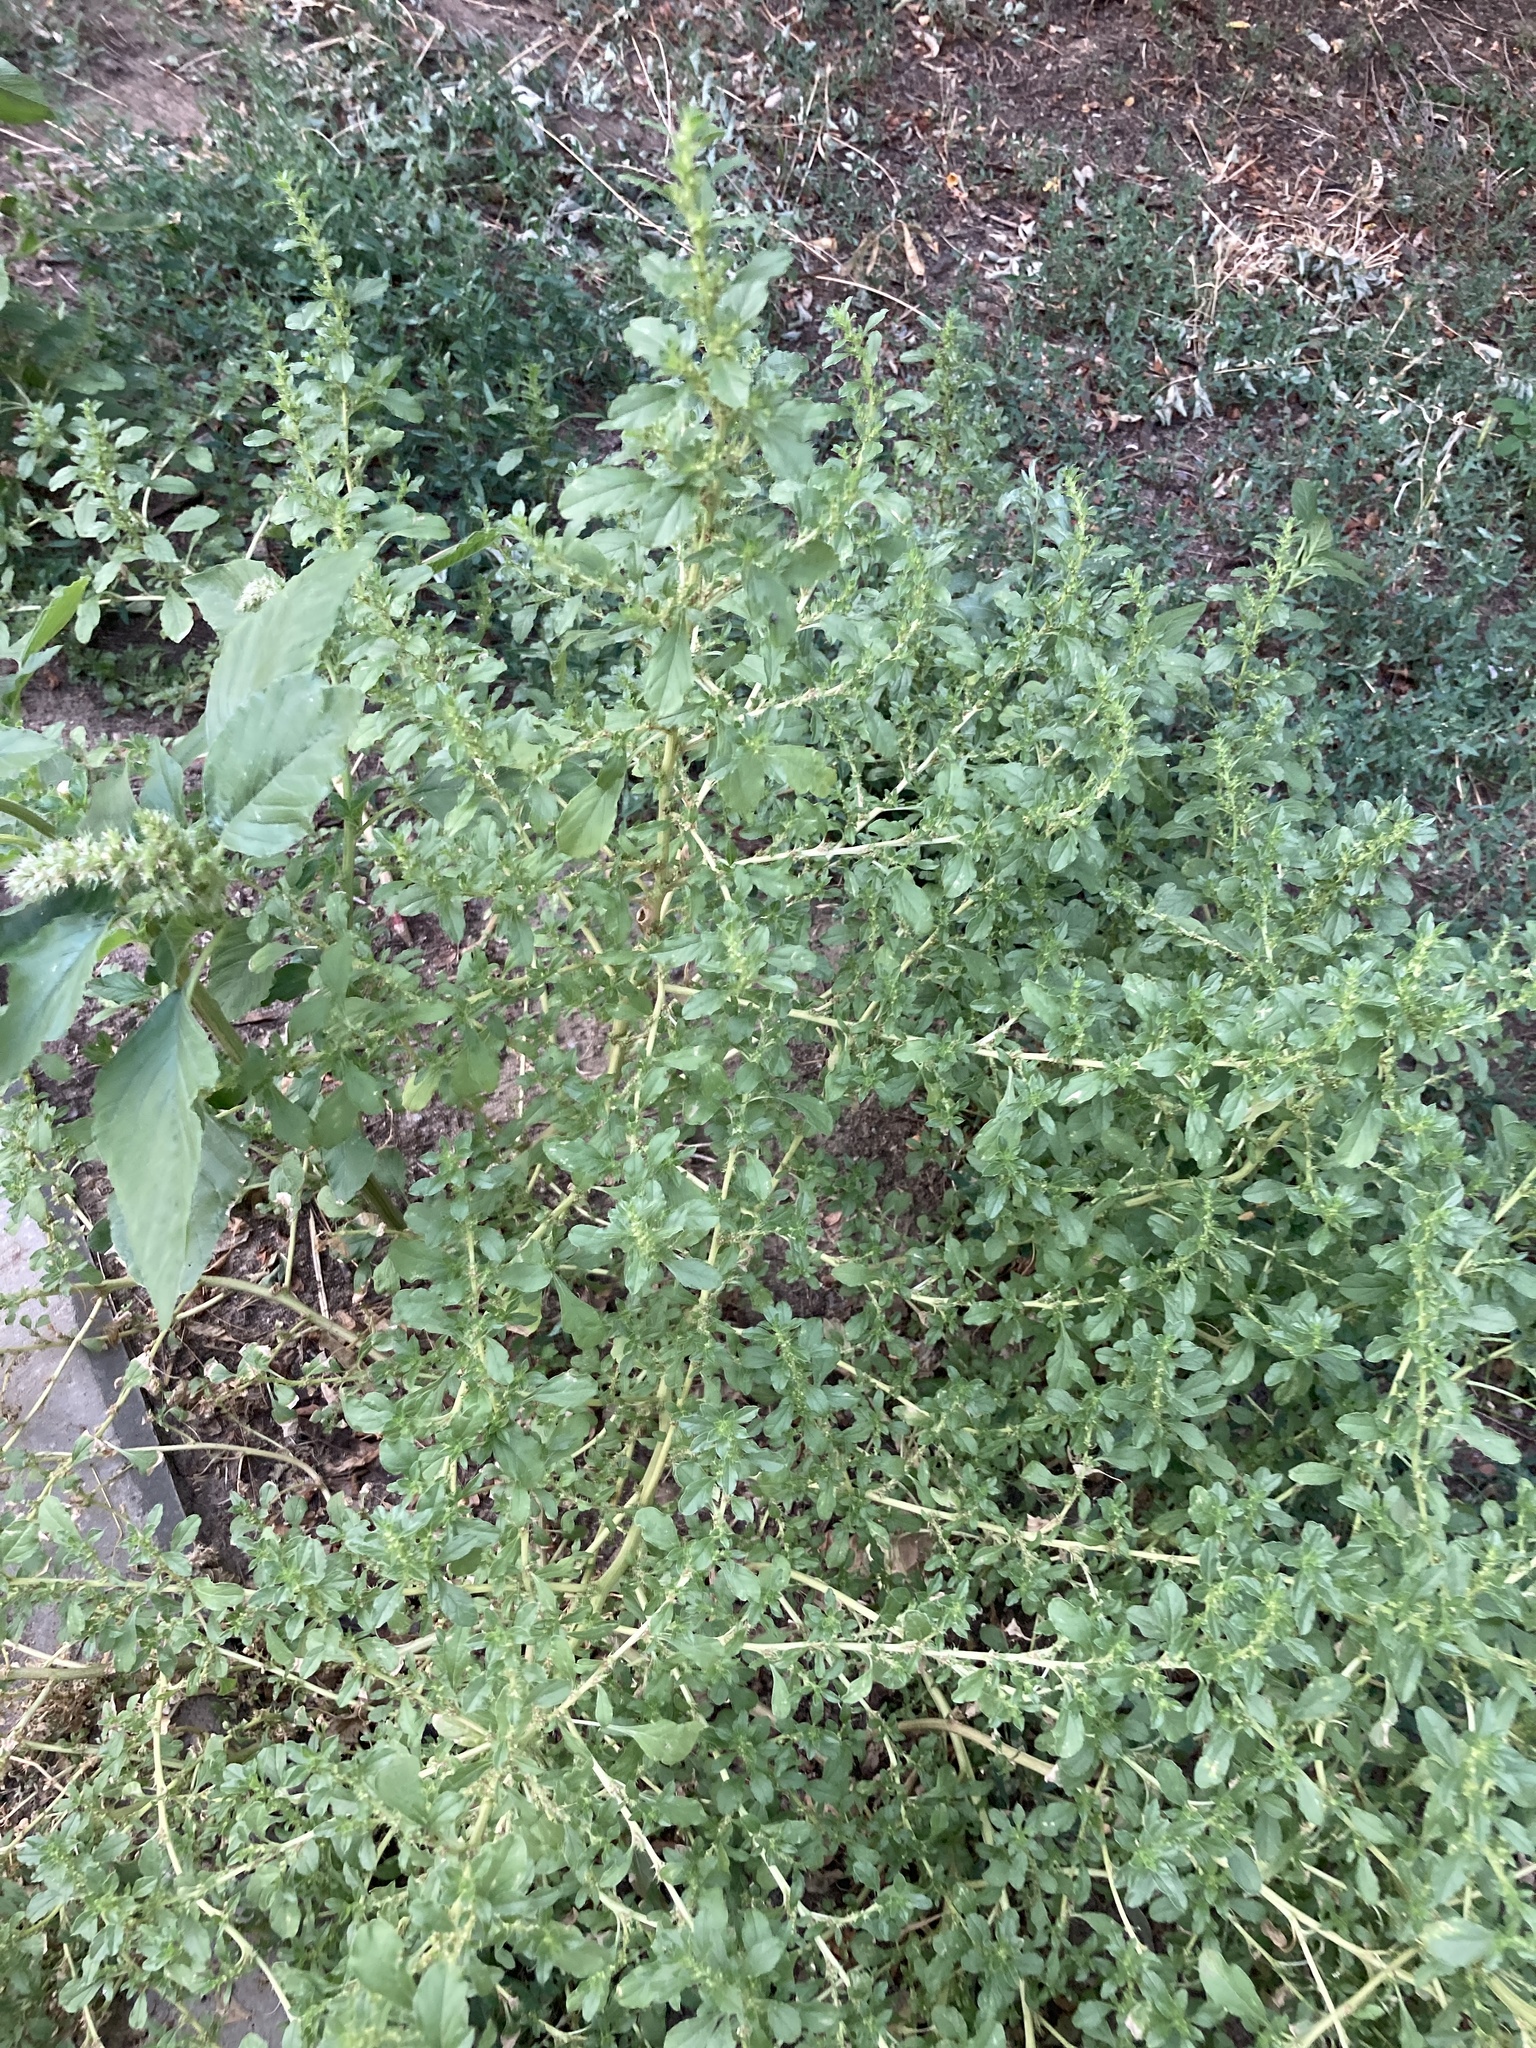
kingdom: Plantae
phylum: Tracheophyta
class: Magnoliopsida
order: Caryophyllales
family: Amaranthaceae
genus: Amaranthus
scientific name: Amaranthus albus
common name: White pigweed
